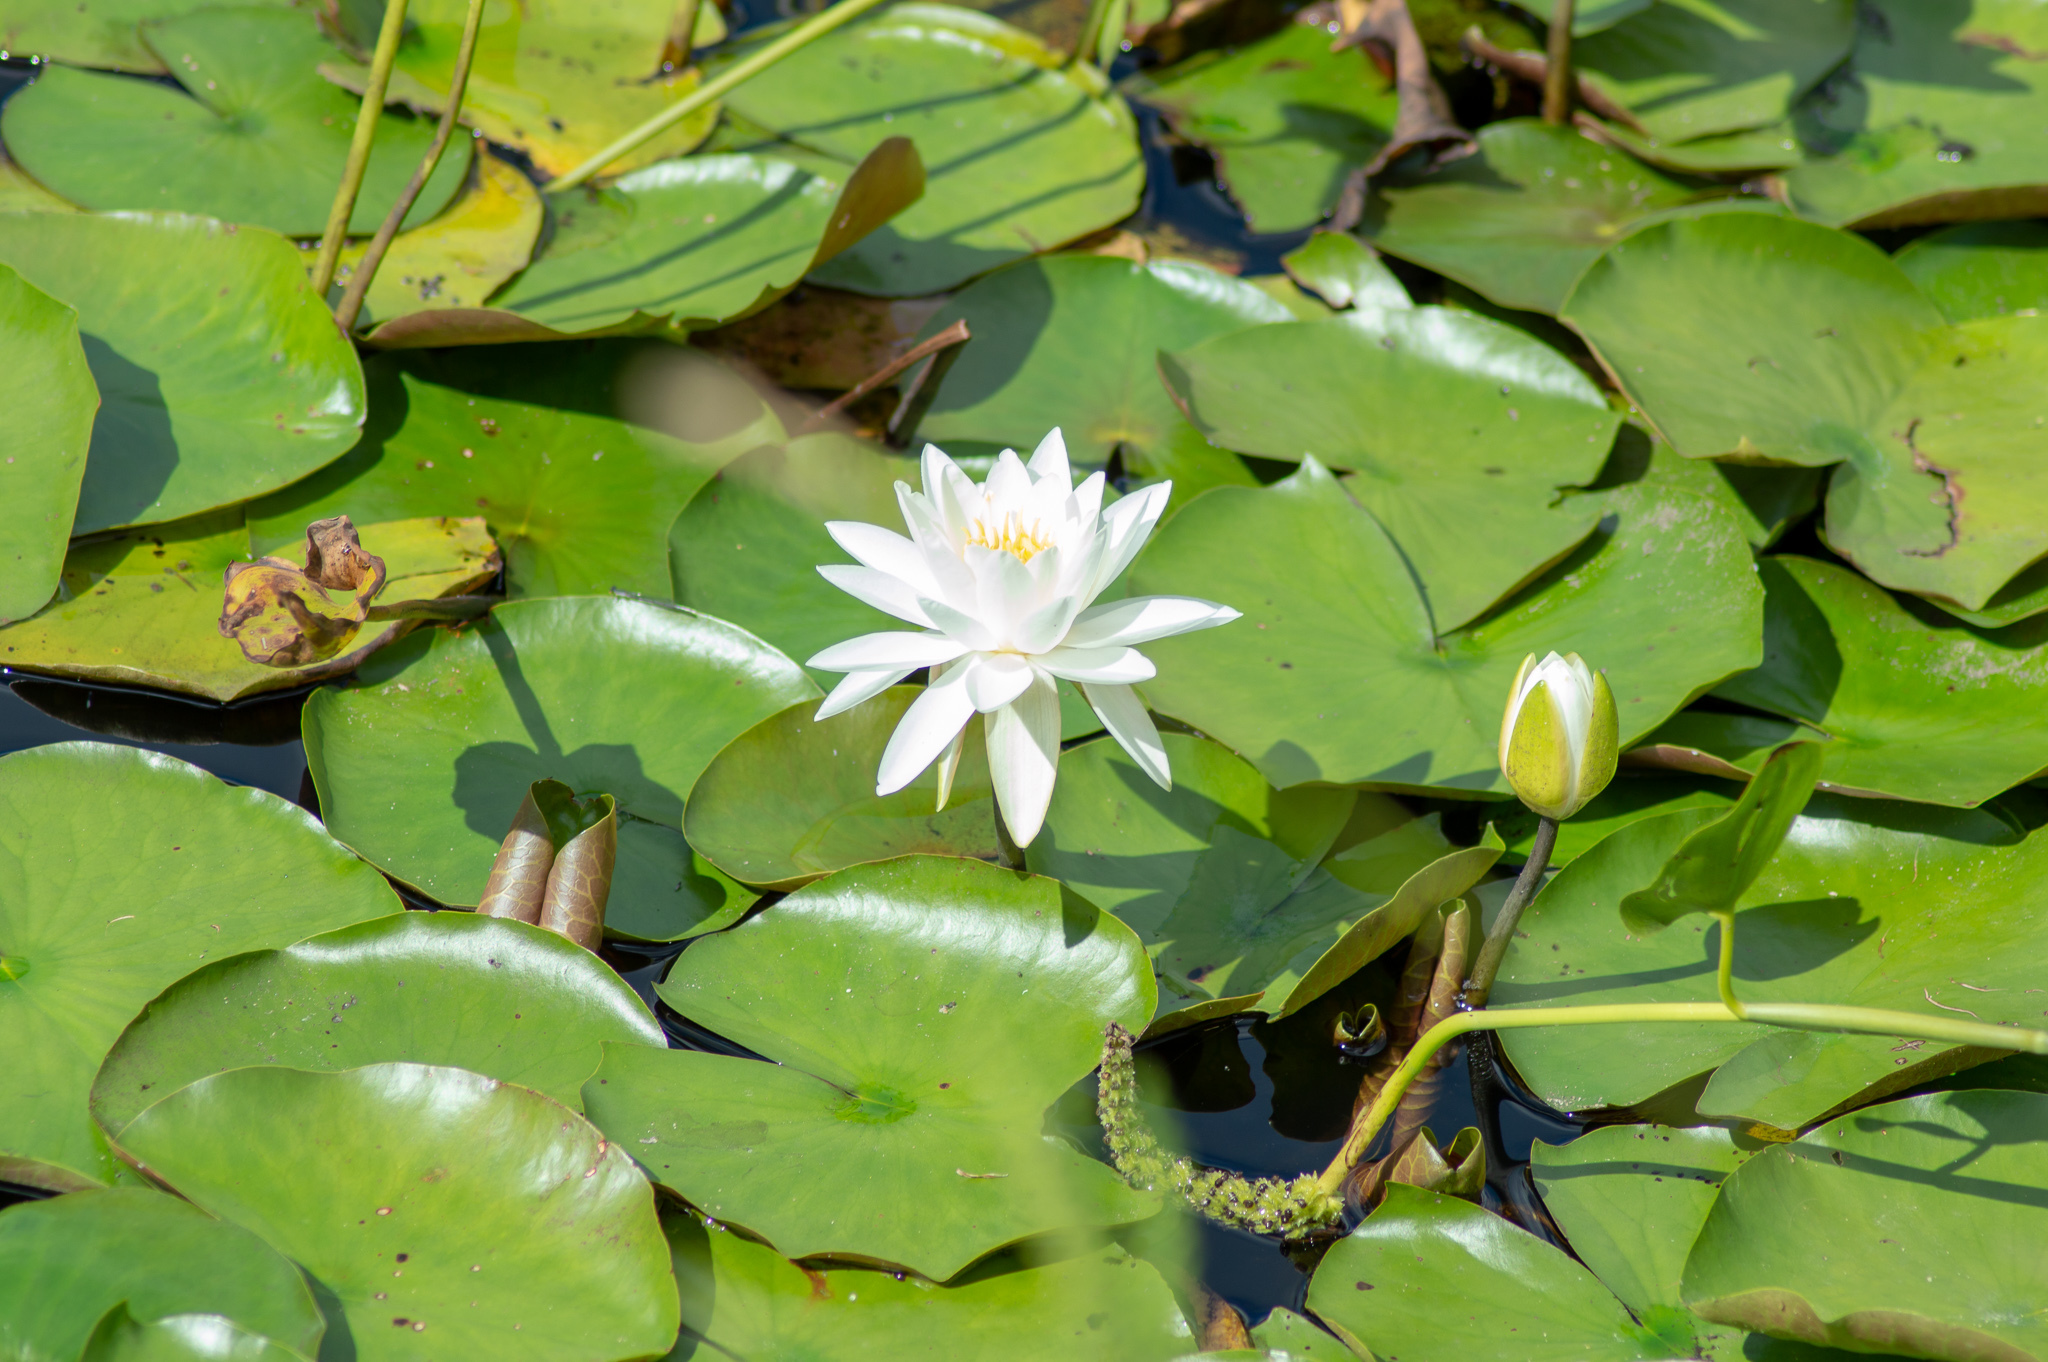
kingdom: Plantae
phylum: Tracheophyta
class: Magnoliopsida
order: Nymphaeales
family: Nymphaeaceae
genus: Nymphaea
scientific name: Nymphaea odorata
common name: Fragrant water-lily
